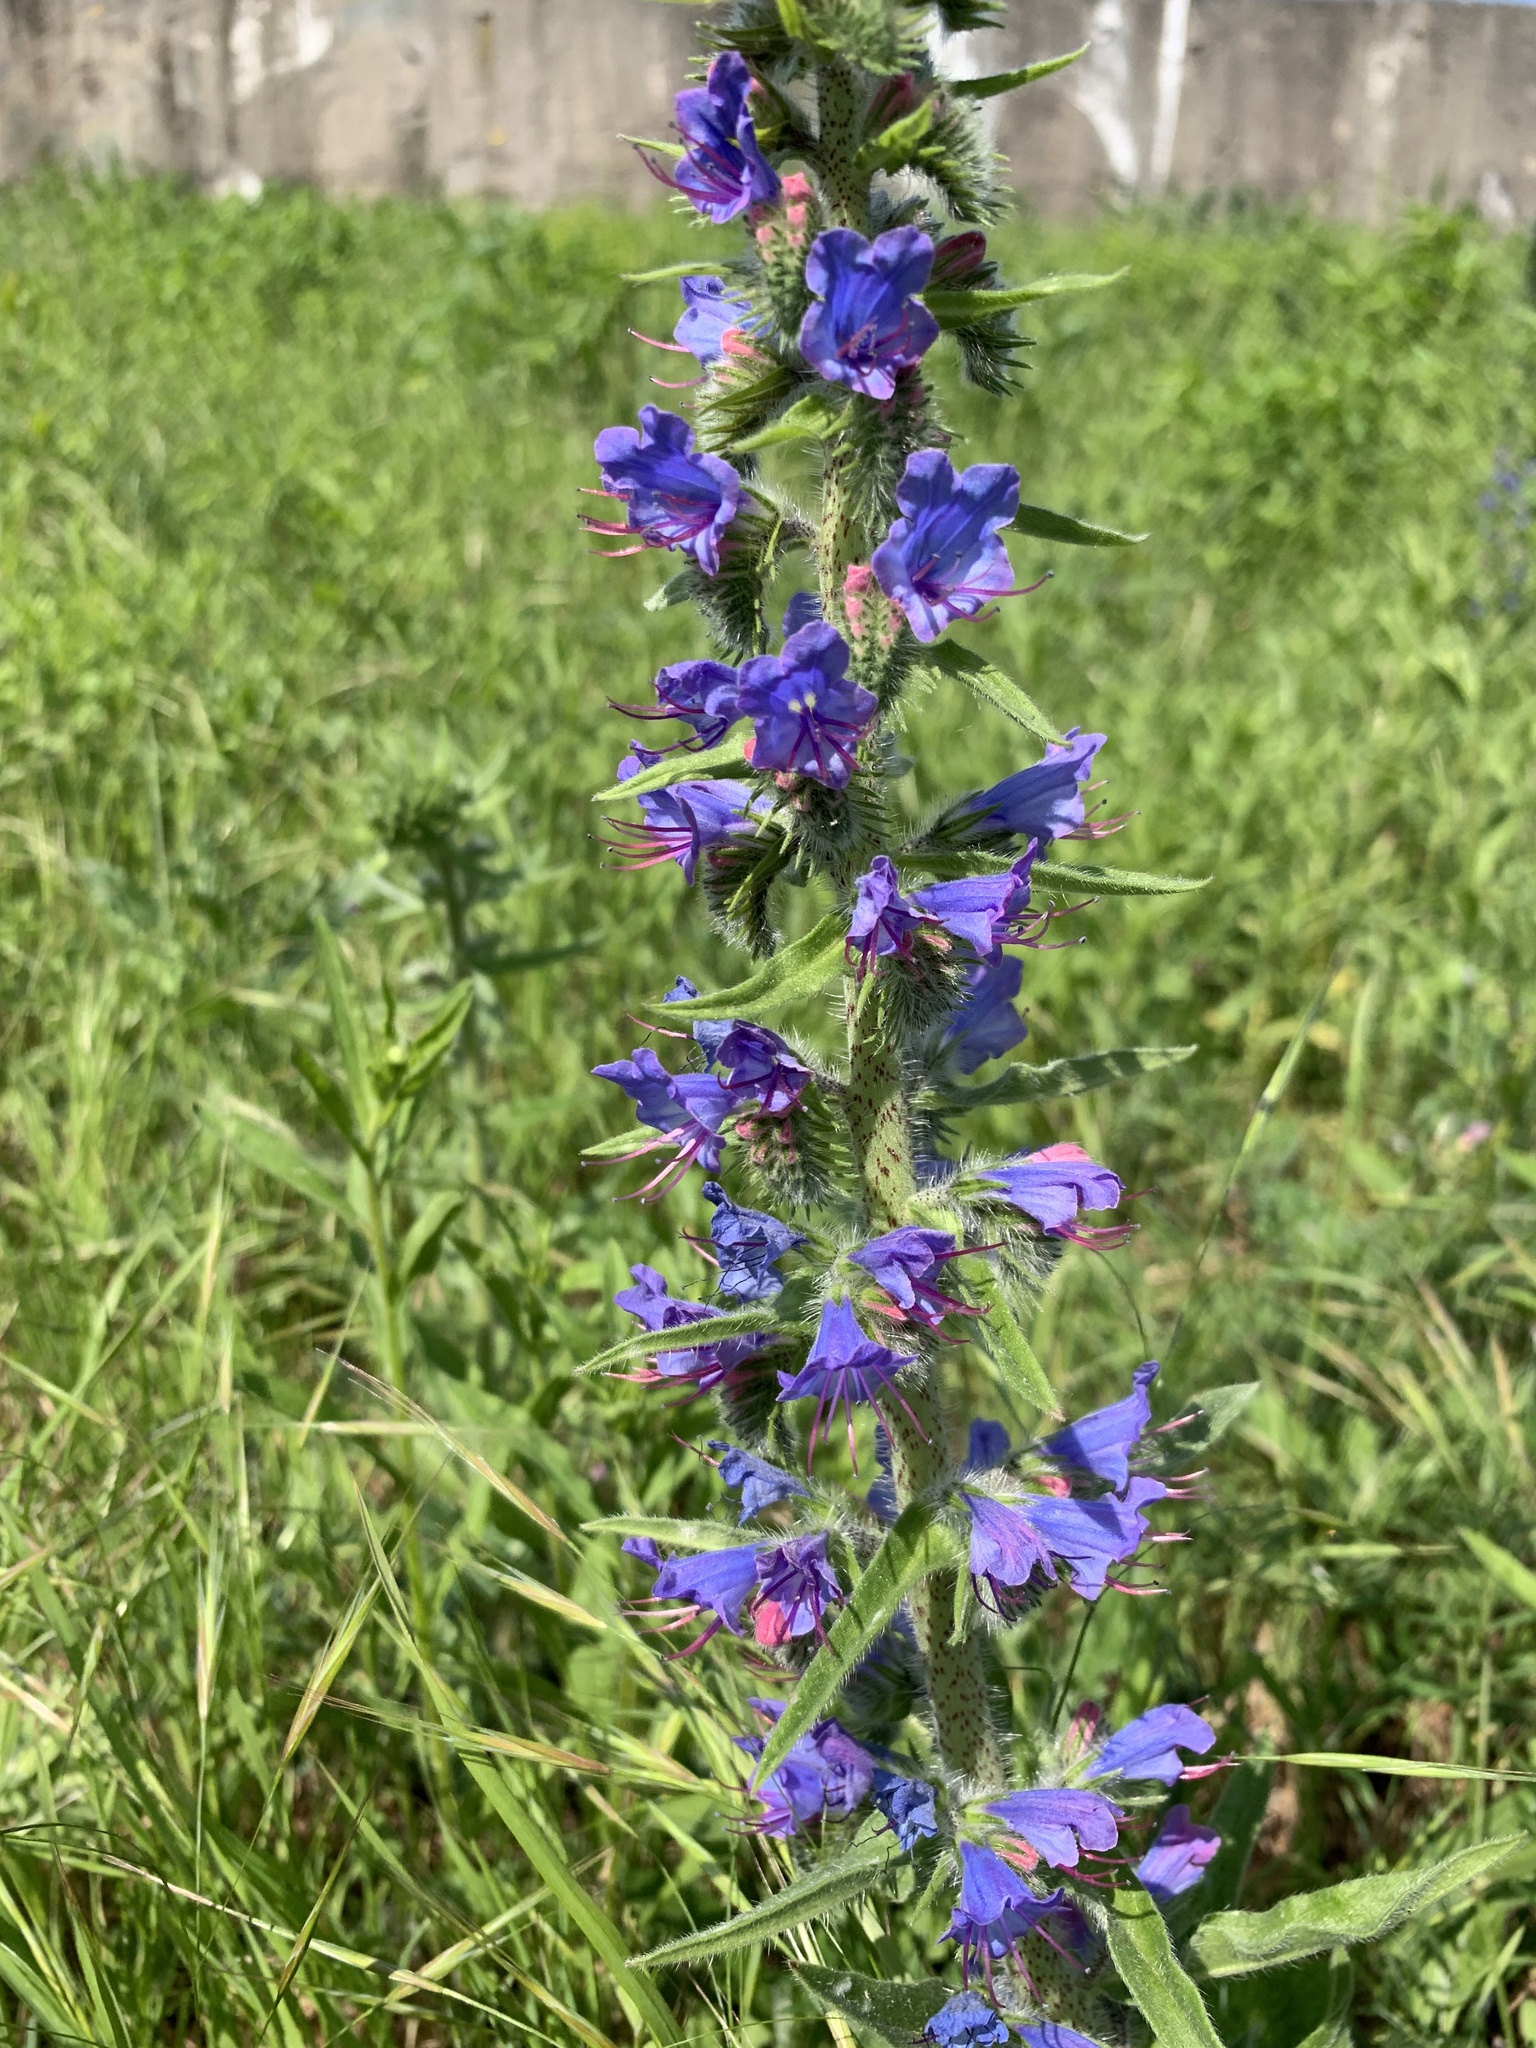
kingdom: Plantae
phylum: Tracheophyta
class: Magnoliopsida
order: Boraginales
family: Boraginaceae
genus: Echium
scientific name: Echium vulgare
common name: Common viper's bugloss
